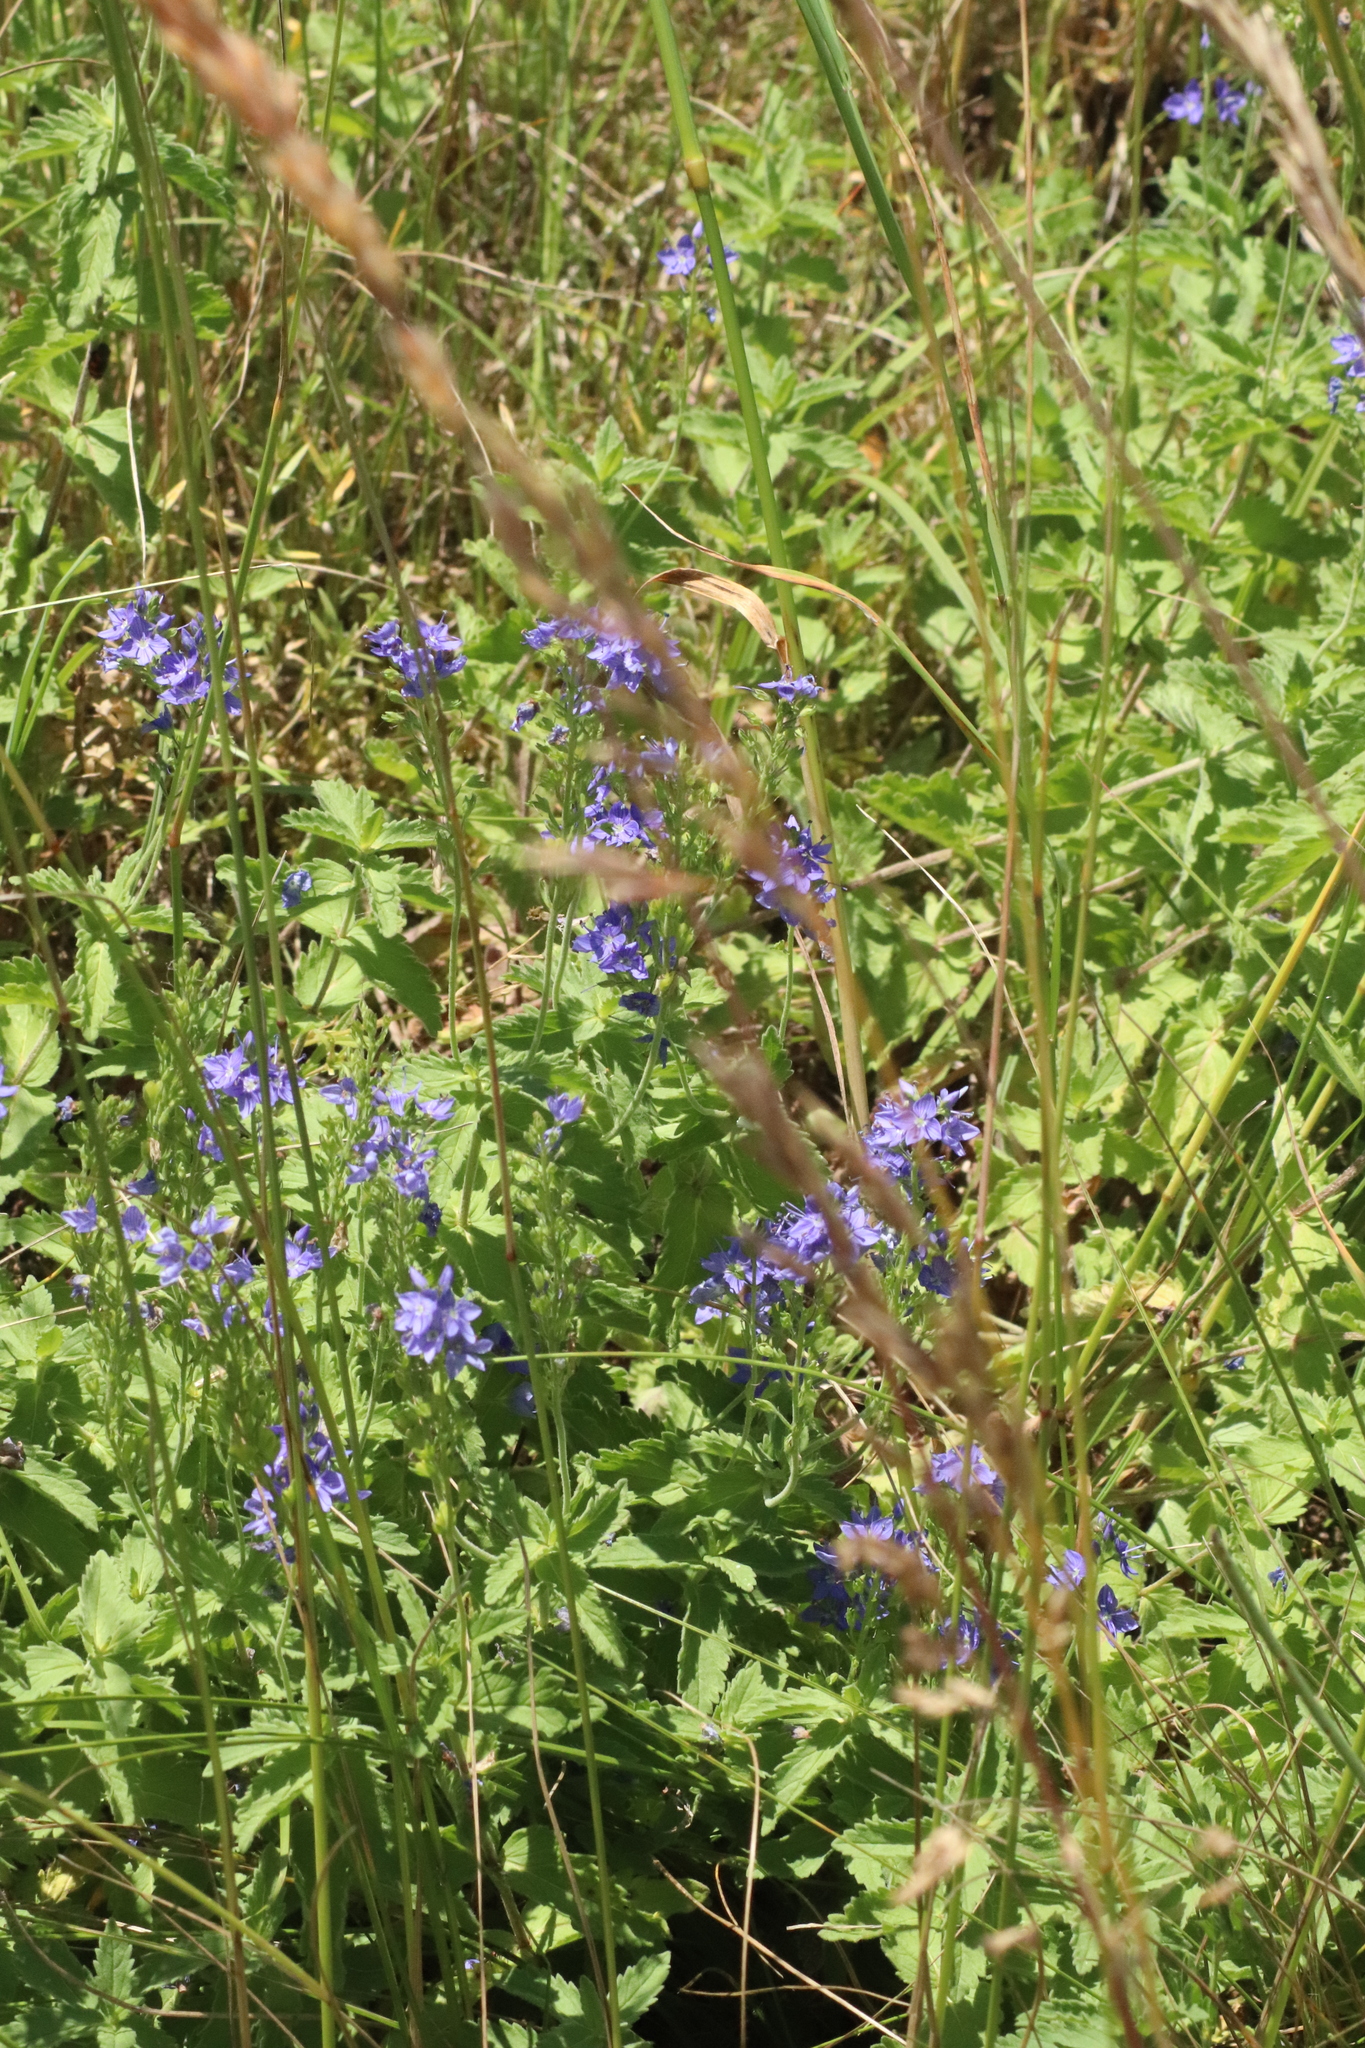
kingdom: Plantae
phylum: Tracheophyta
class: Magnoliopsida
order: Lamiales
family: Plantaginaceae
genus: Veronica
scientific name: Veronica teucrium
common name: Large speedwell
